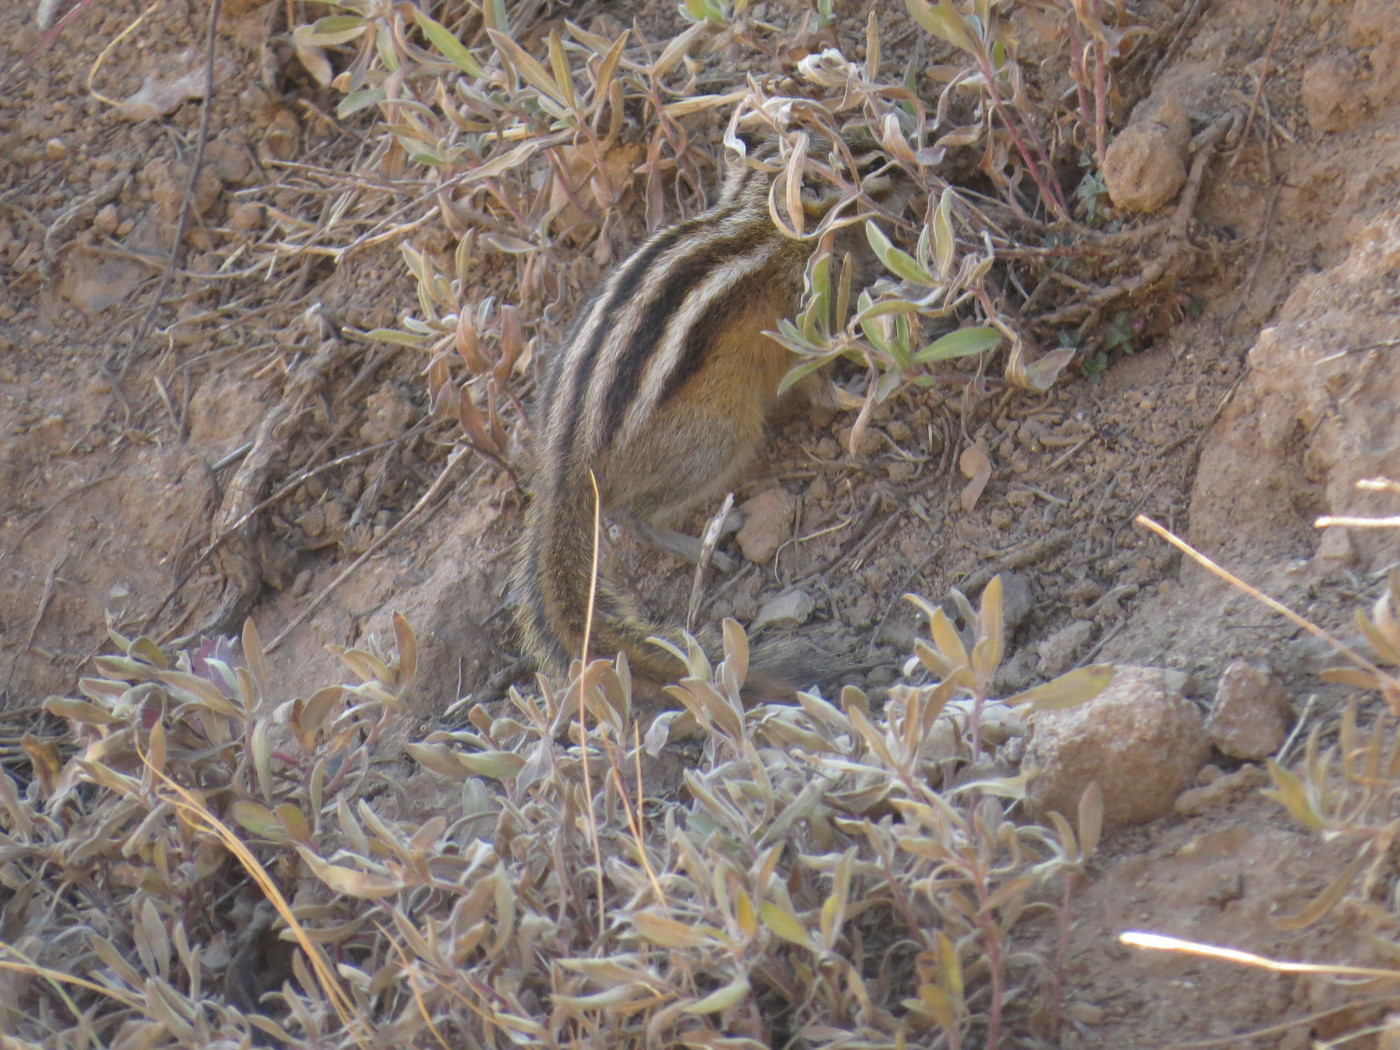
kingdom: Animalia
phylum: Chordata
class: Mammalia
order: Rodentia
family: Sciuridae
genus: Tamias
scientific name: Tamias minimus
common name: Least chipmunk
